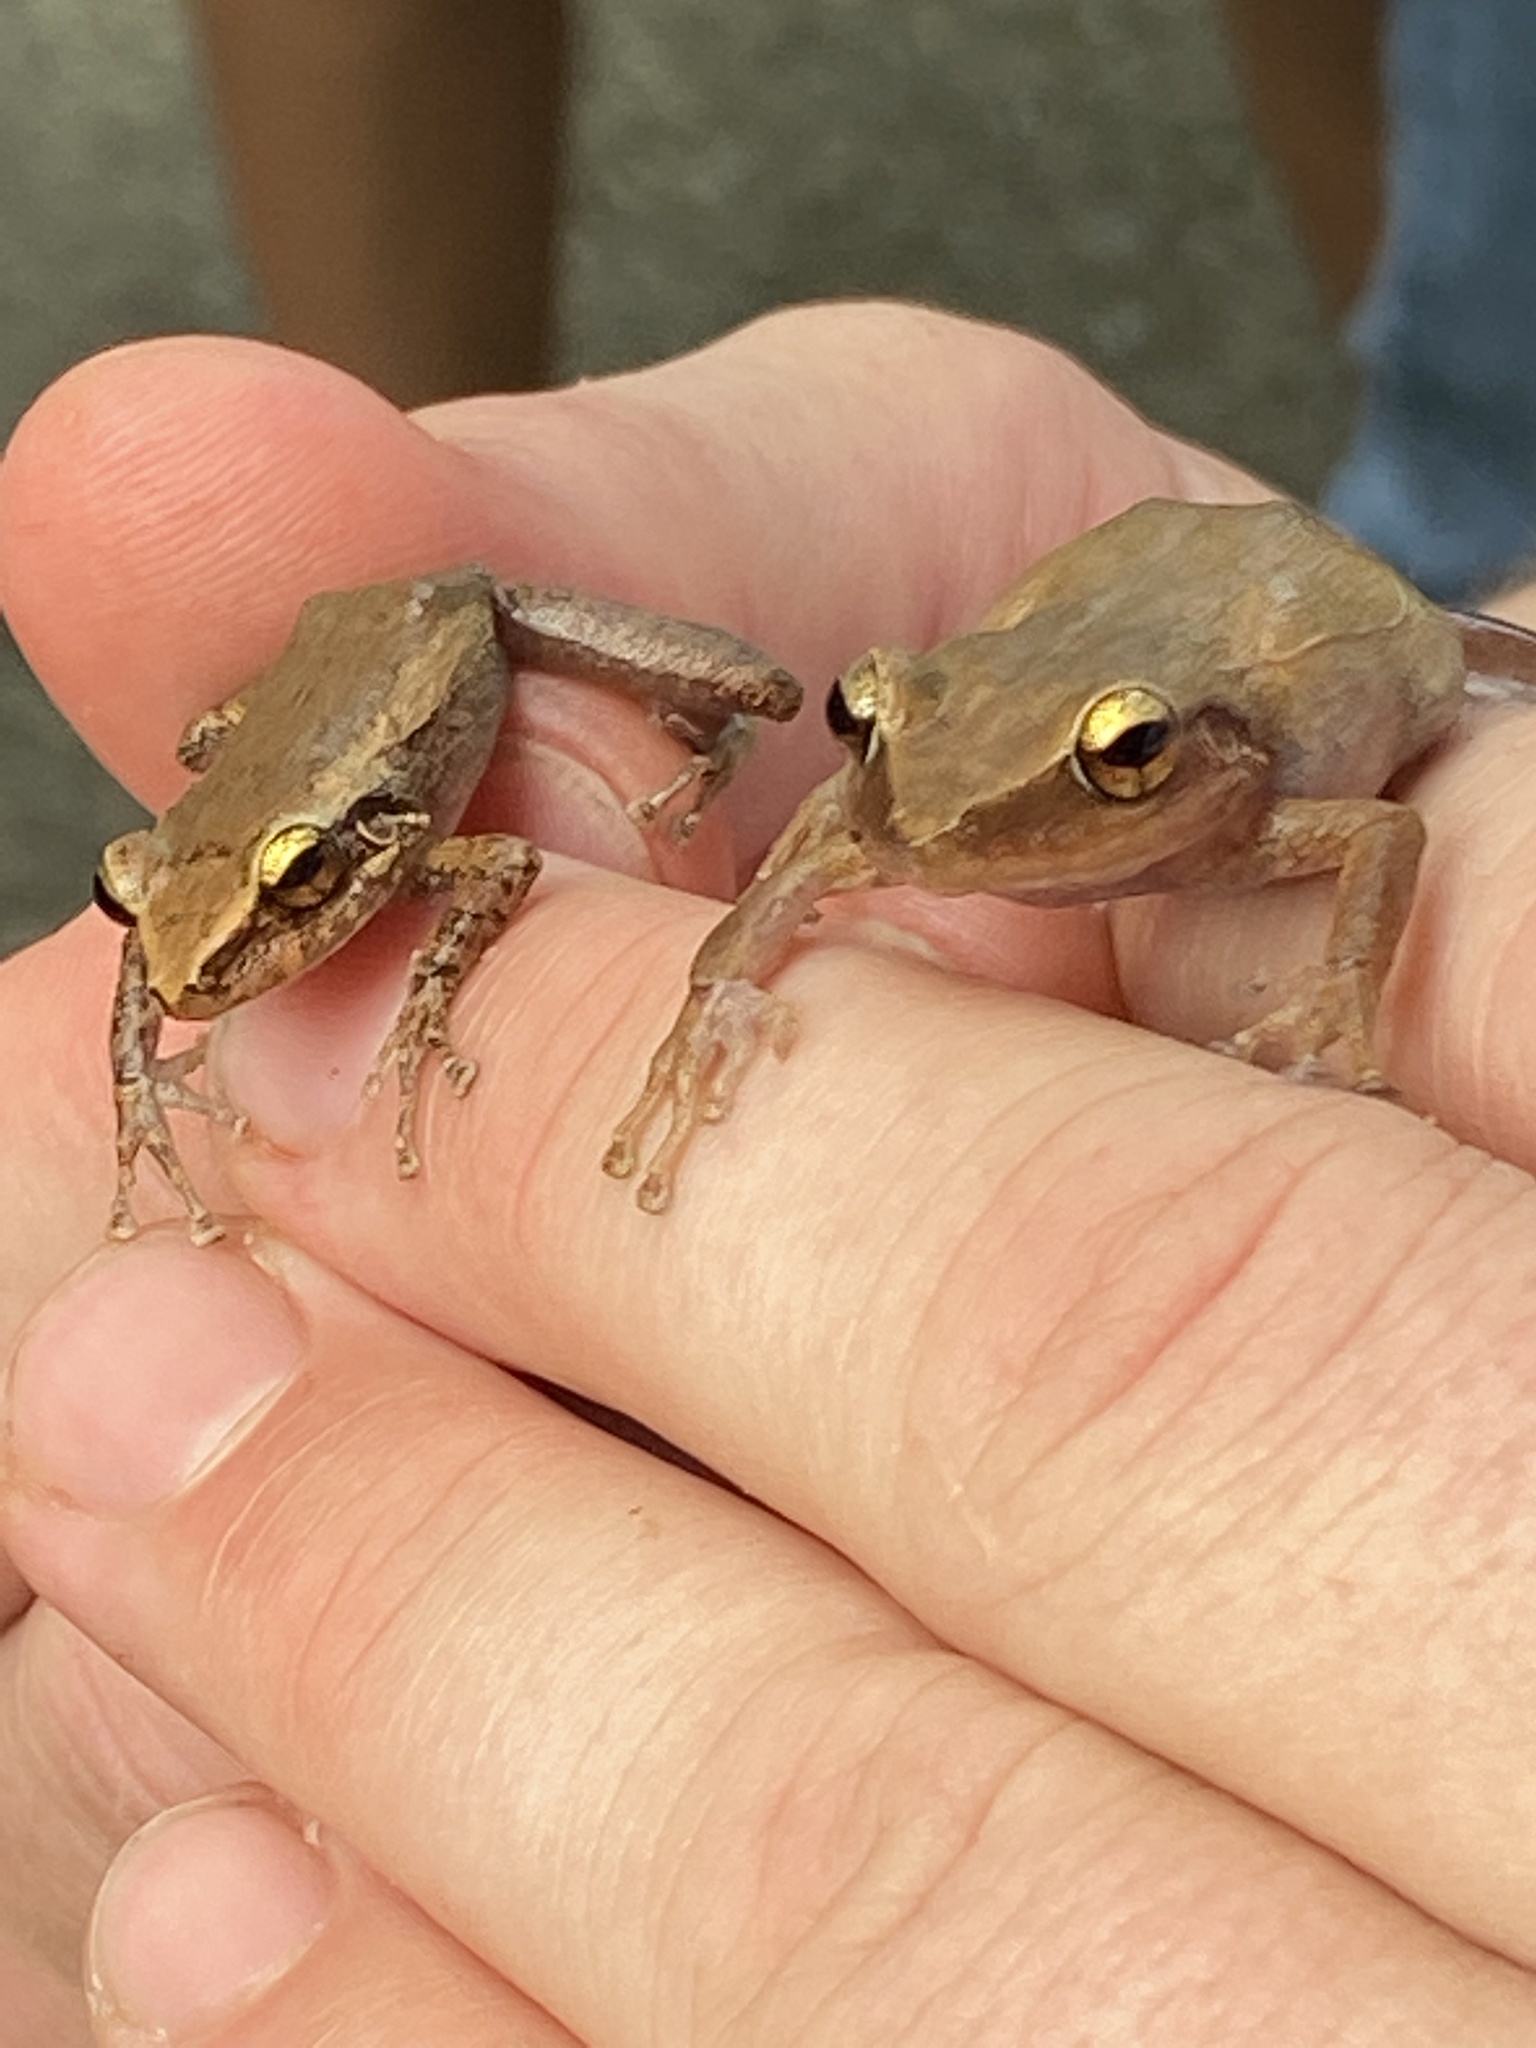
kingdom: Animalia
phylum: Chordata
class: Amphibia
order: Anura
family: Eleutherodactylidae
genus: Eleutherodactylus
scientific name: Eleutherodactylus coqui
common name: Coqui frog
